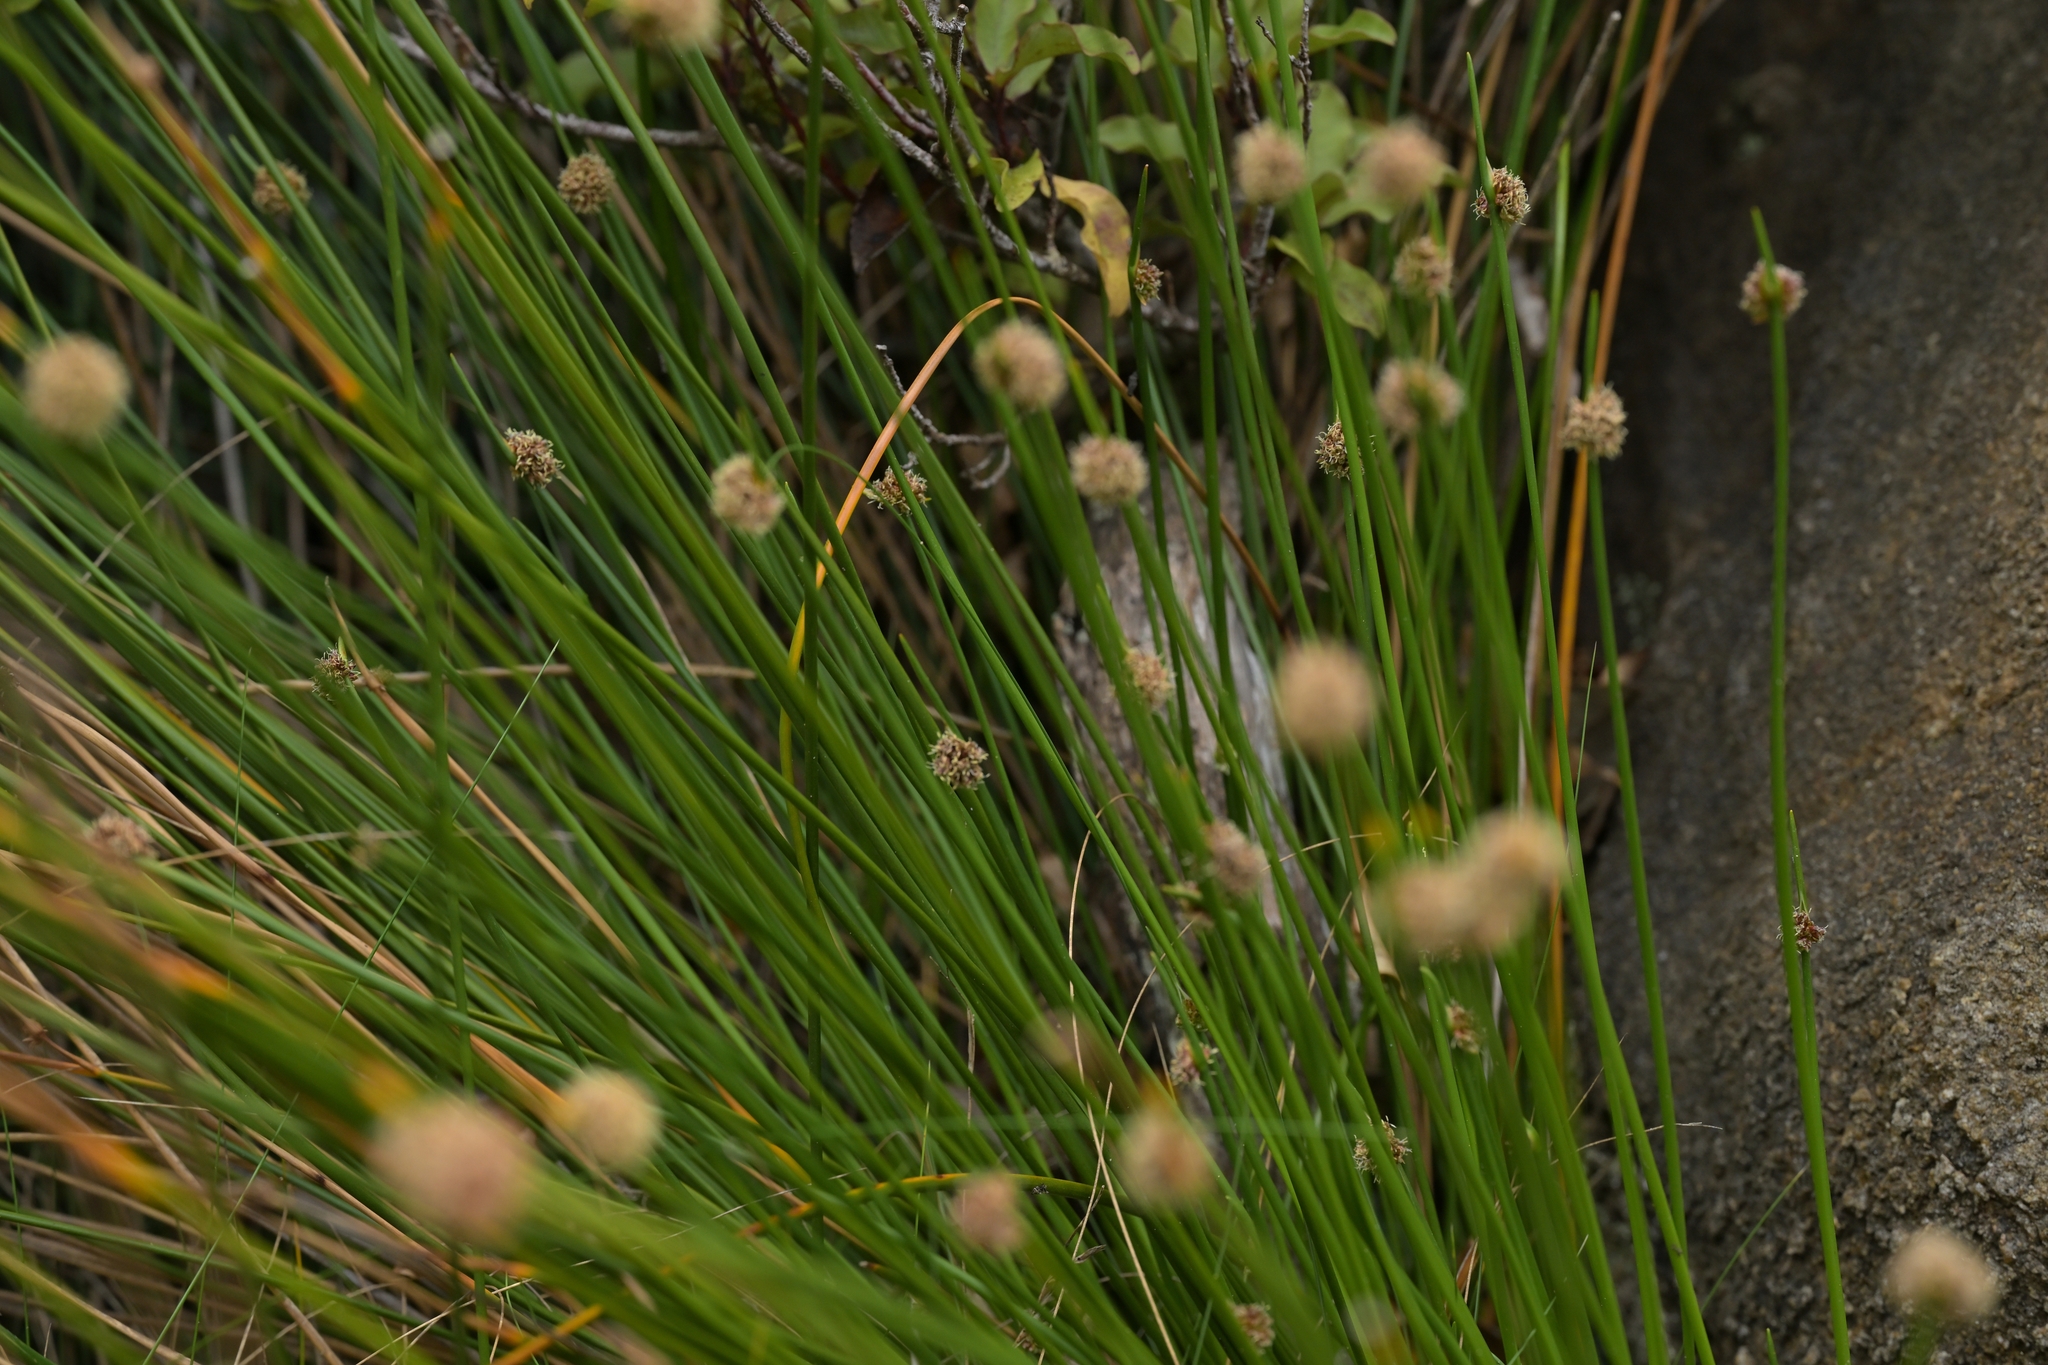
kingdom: Plantae
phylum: Tracheophyta
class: Liliopsida
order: Poales
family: Cyperaceae
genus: Ficinia
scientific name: Ficinia nodosa
